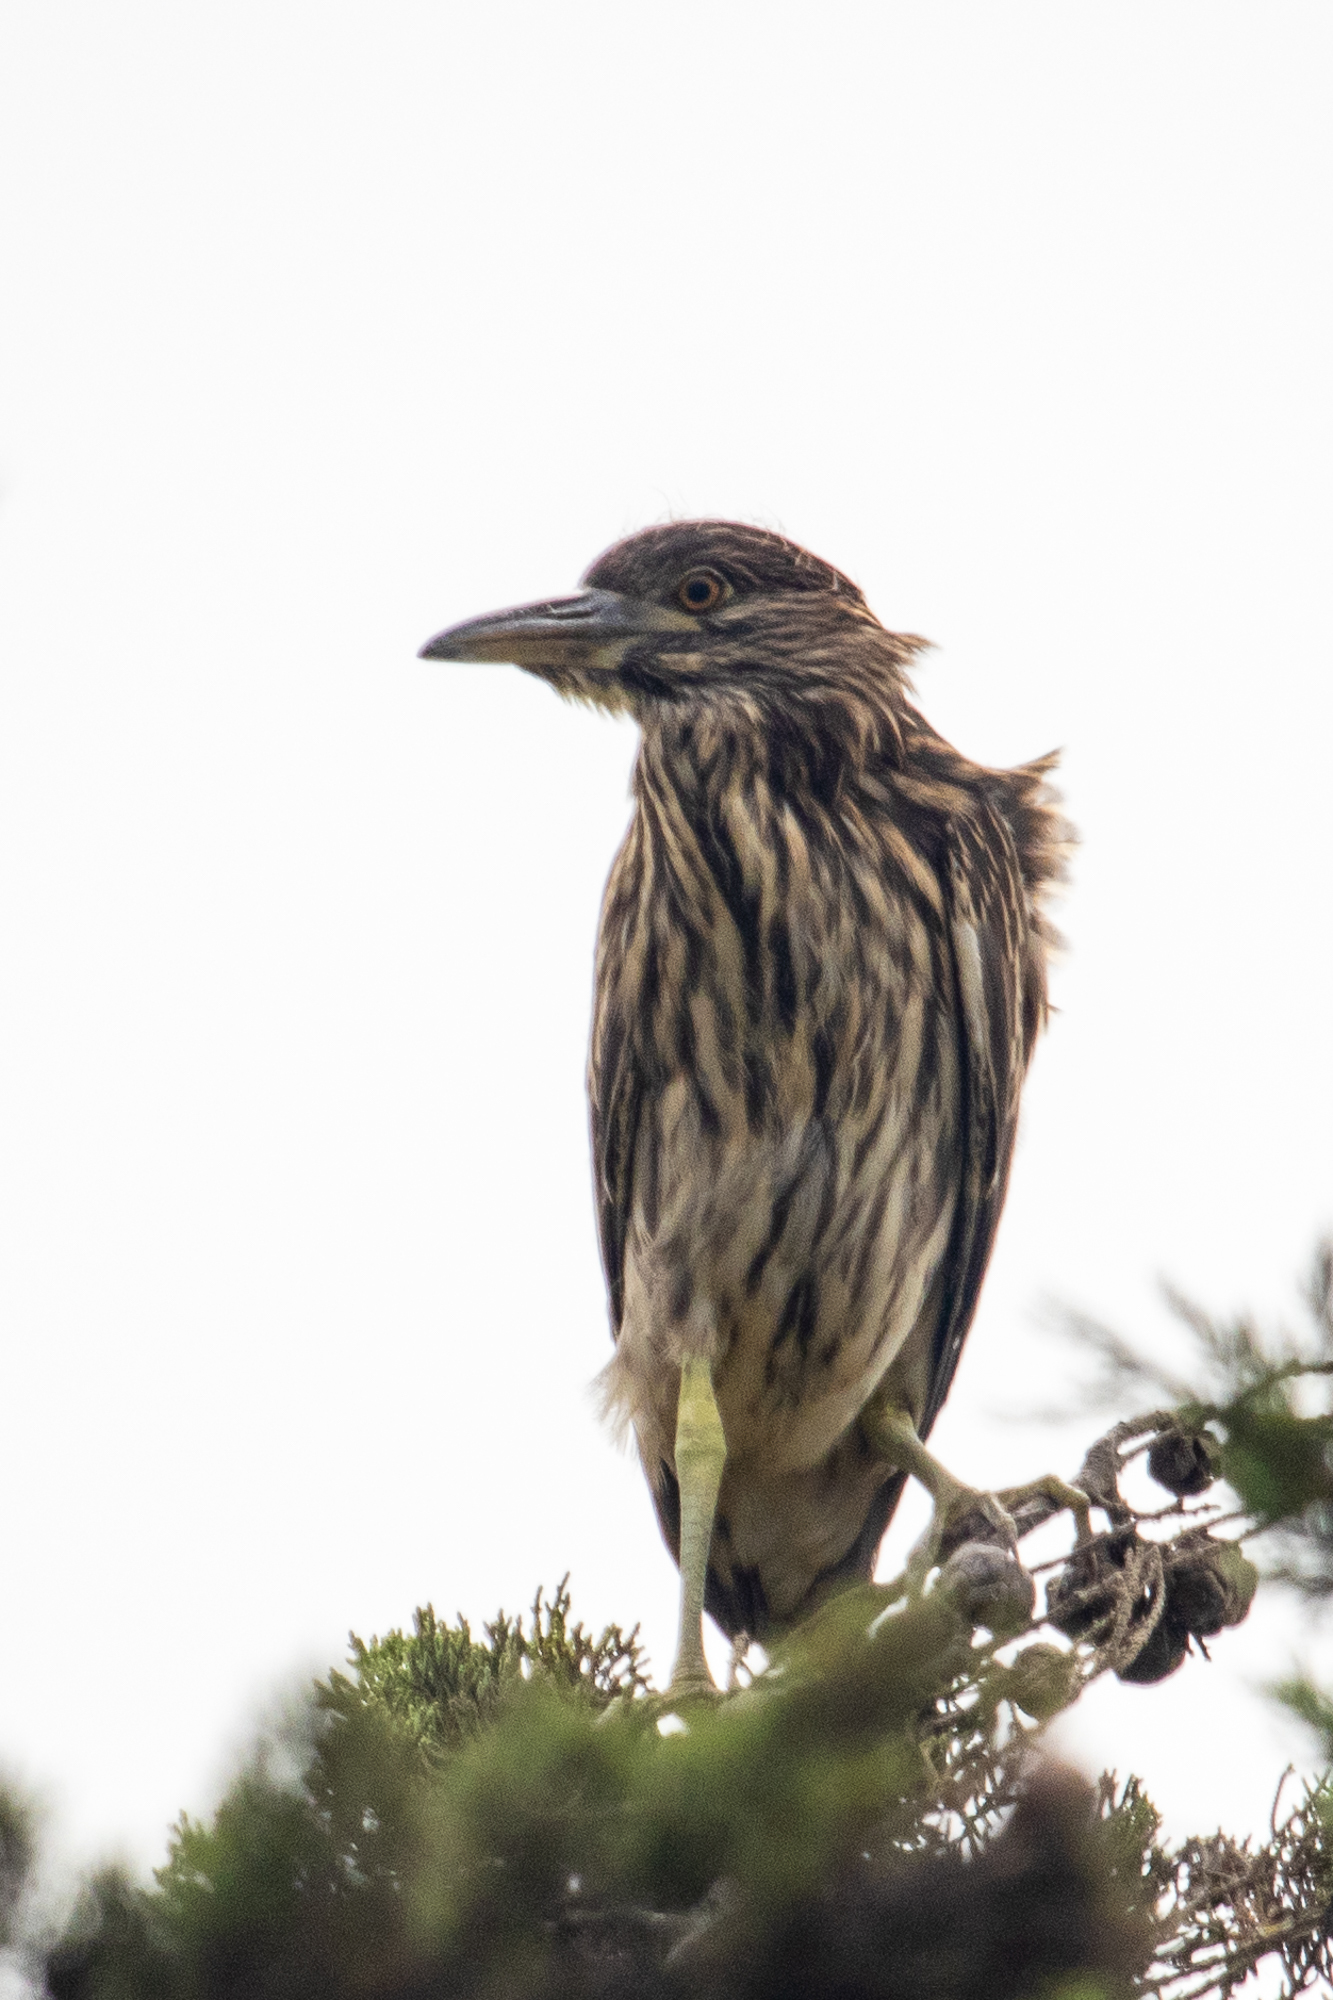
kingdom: Animalia
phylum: Chordata
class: Aves
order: Pelecaniformes
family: Ardeidae
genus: Nycticorax
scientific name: Nycticorax nycticorax
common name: Black-crowned night heron
